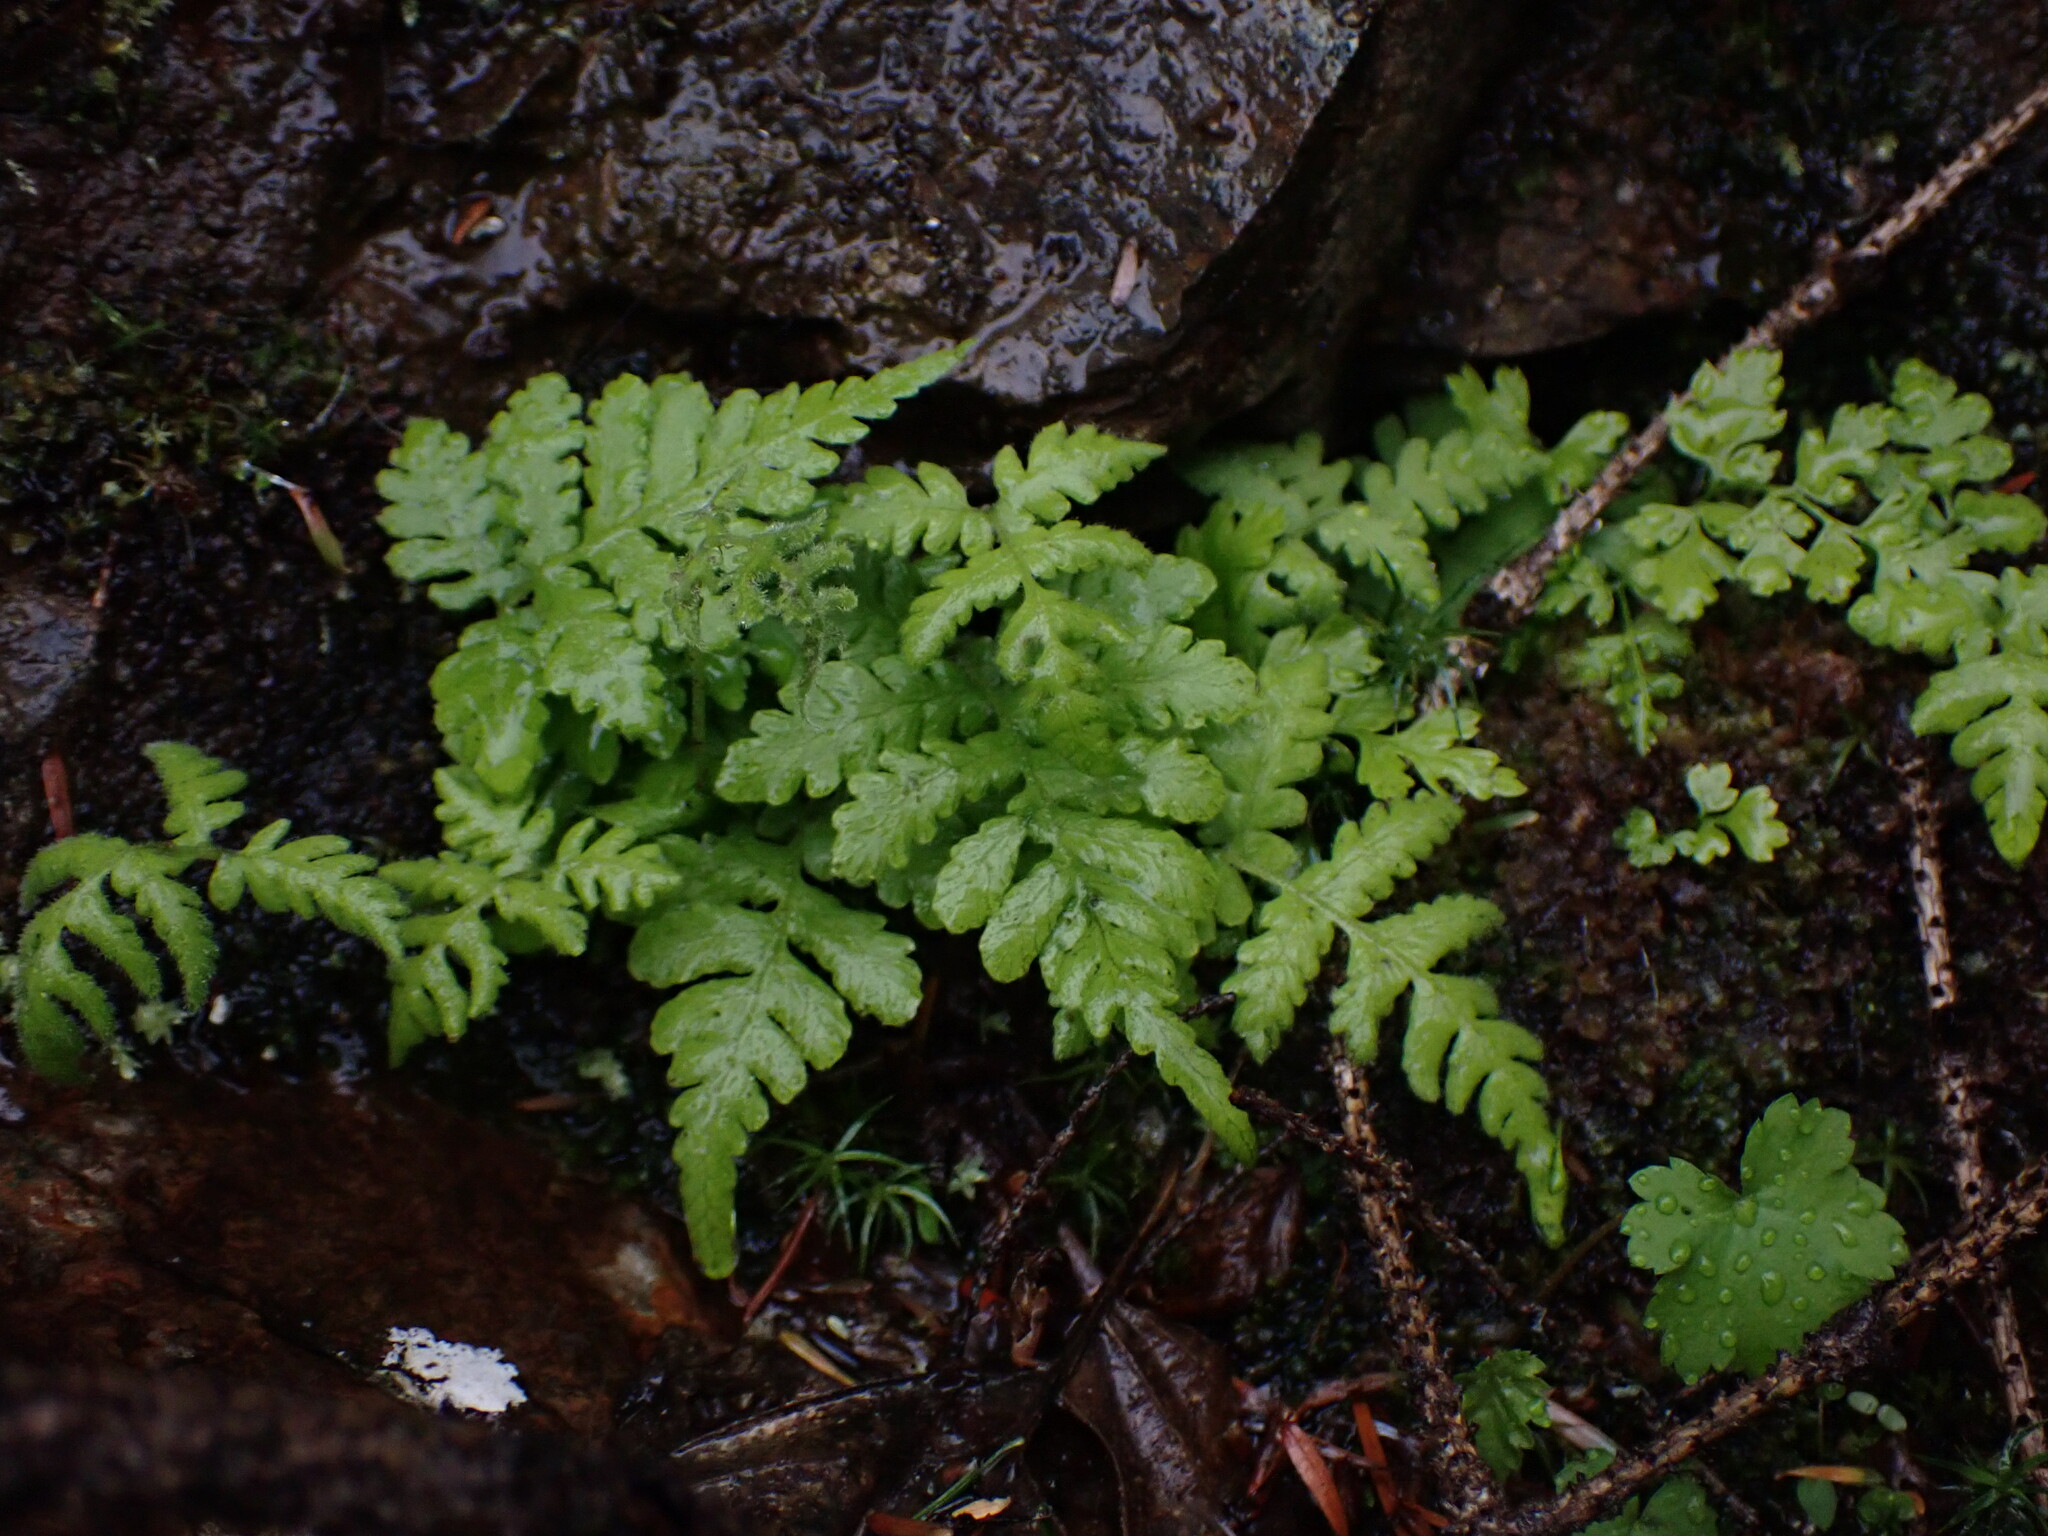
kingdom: Plantae
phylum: Tracheophyta
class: Polypodiopsida
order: Polypodiales
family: Thelypteridaceae
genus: Phegopteris
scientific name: Phegopteris connectilis
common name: Beech fern
